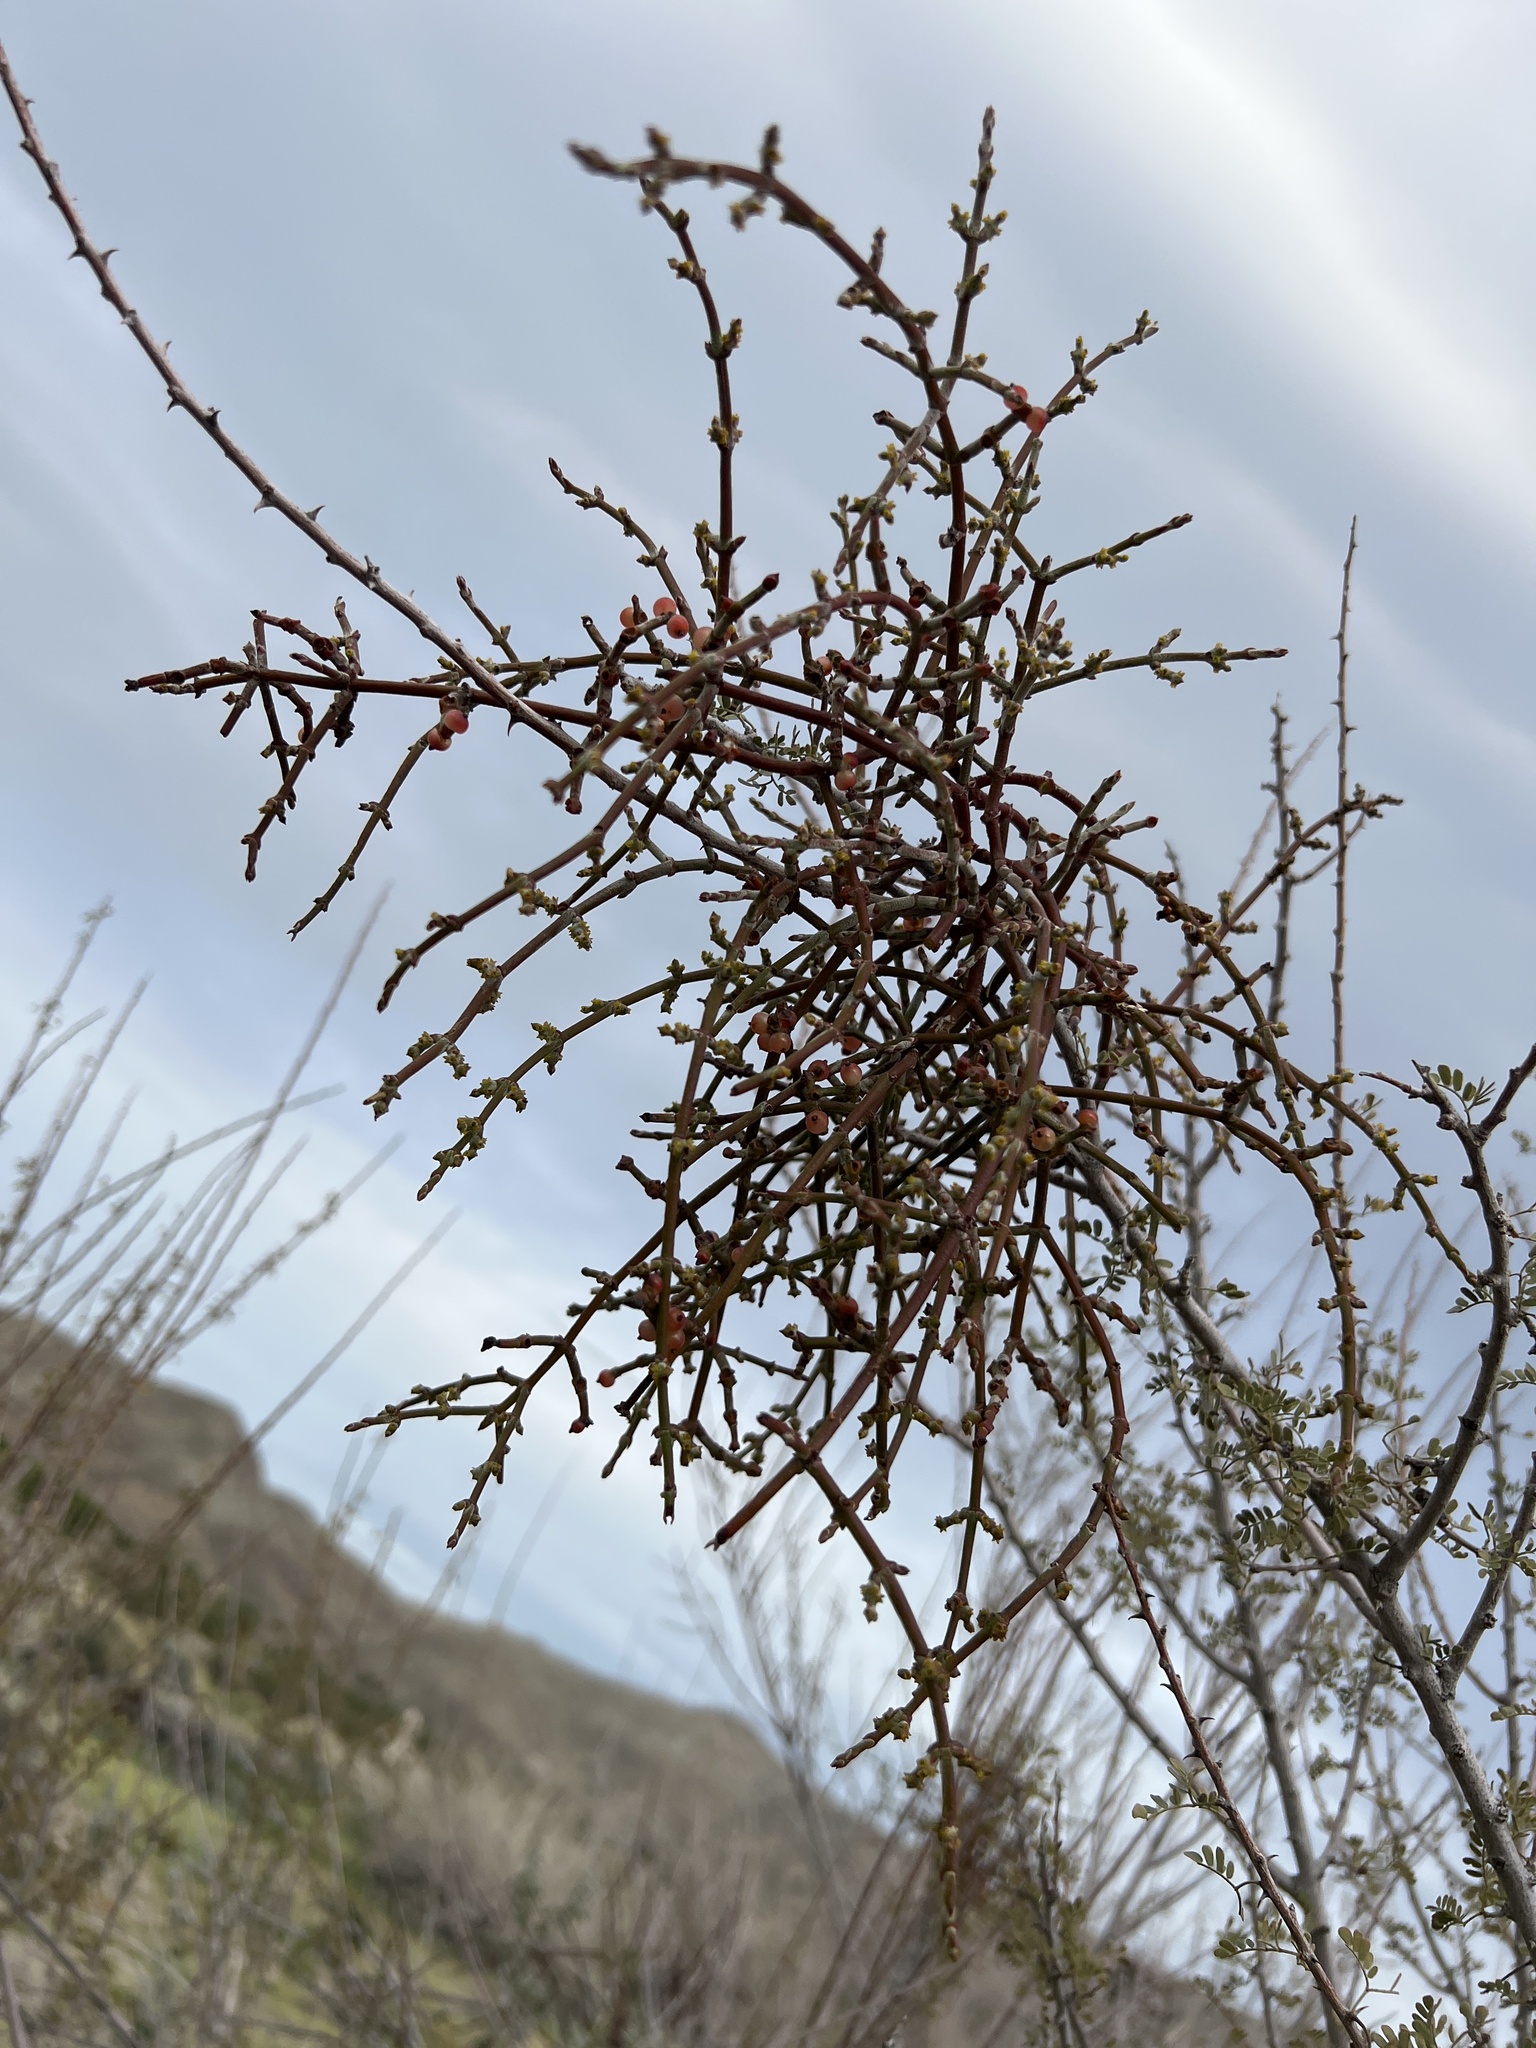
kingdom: Plantae
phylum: Tracheophyta
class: Magnoliopsida
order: Santalales
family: Viscaceae
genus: Phoradendron
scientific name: Phoradendron californicum
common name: Acacia mistletoe
